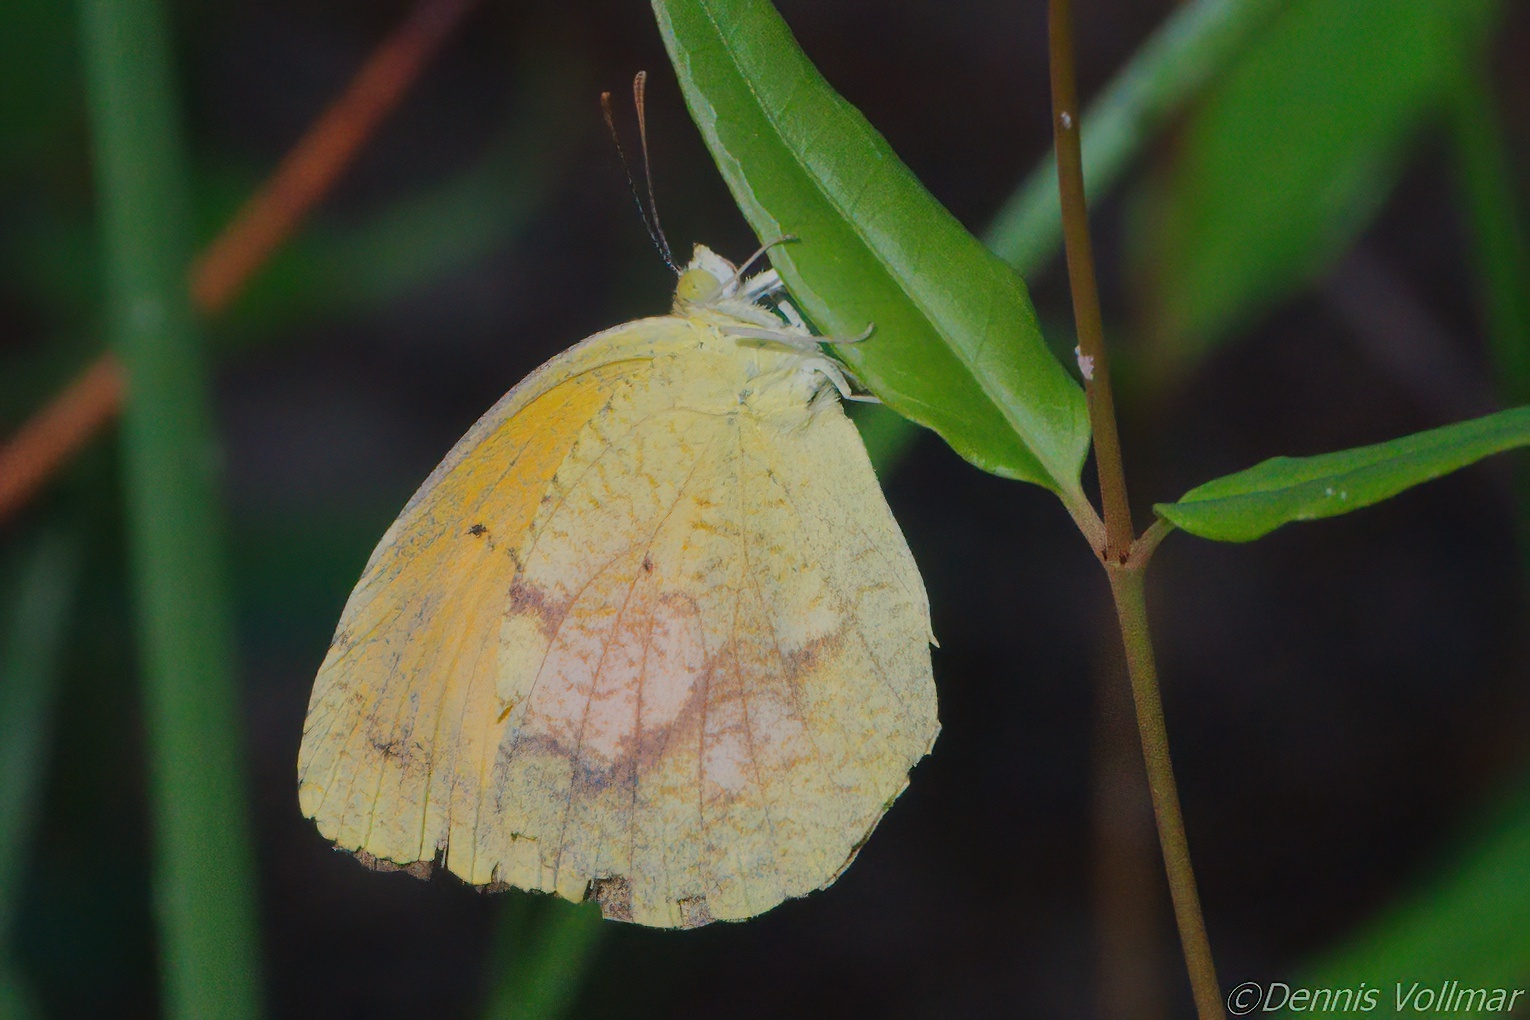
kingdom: Animalia
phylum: Arthropoda
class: Insecta
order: Lepidoptera
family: Pieridae
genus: Abaeis
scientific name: Abaeis nicippe
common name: Sleepy orange
